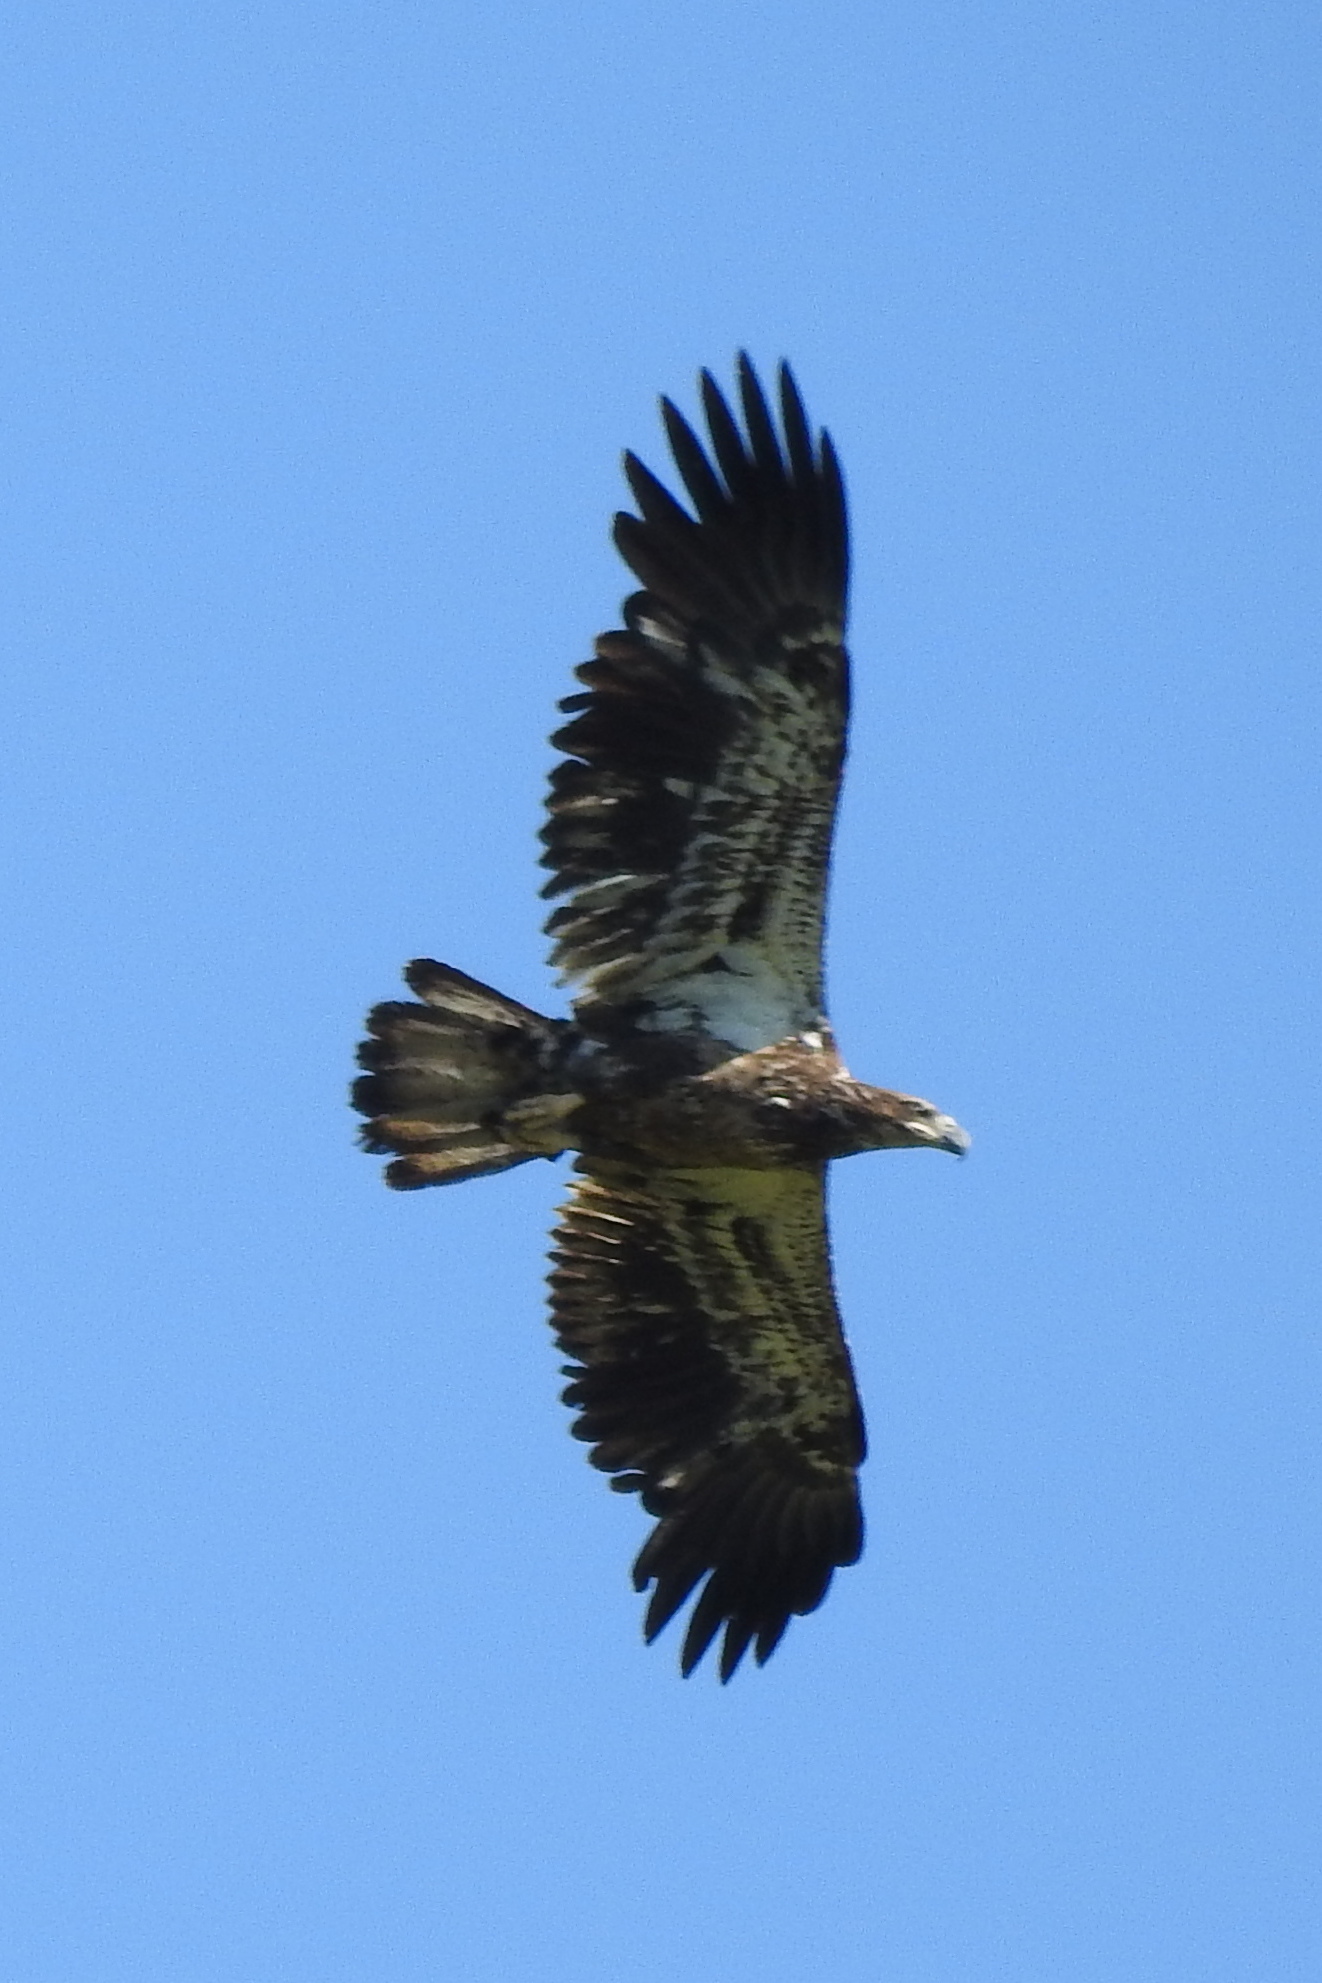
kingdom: Animalia
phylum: Chordata
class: Aves
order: Accipitriformes
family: Accipitridae
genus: Haliaeetus
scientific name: Haliaeetus leucocephalus
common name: Bald eagle
